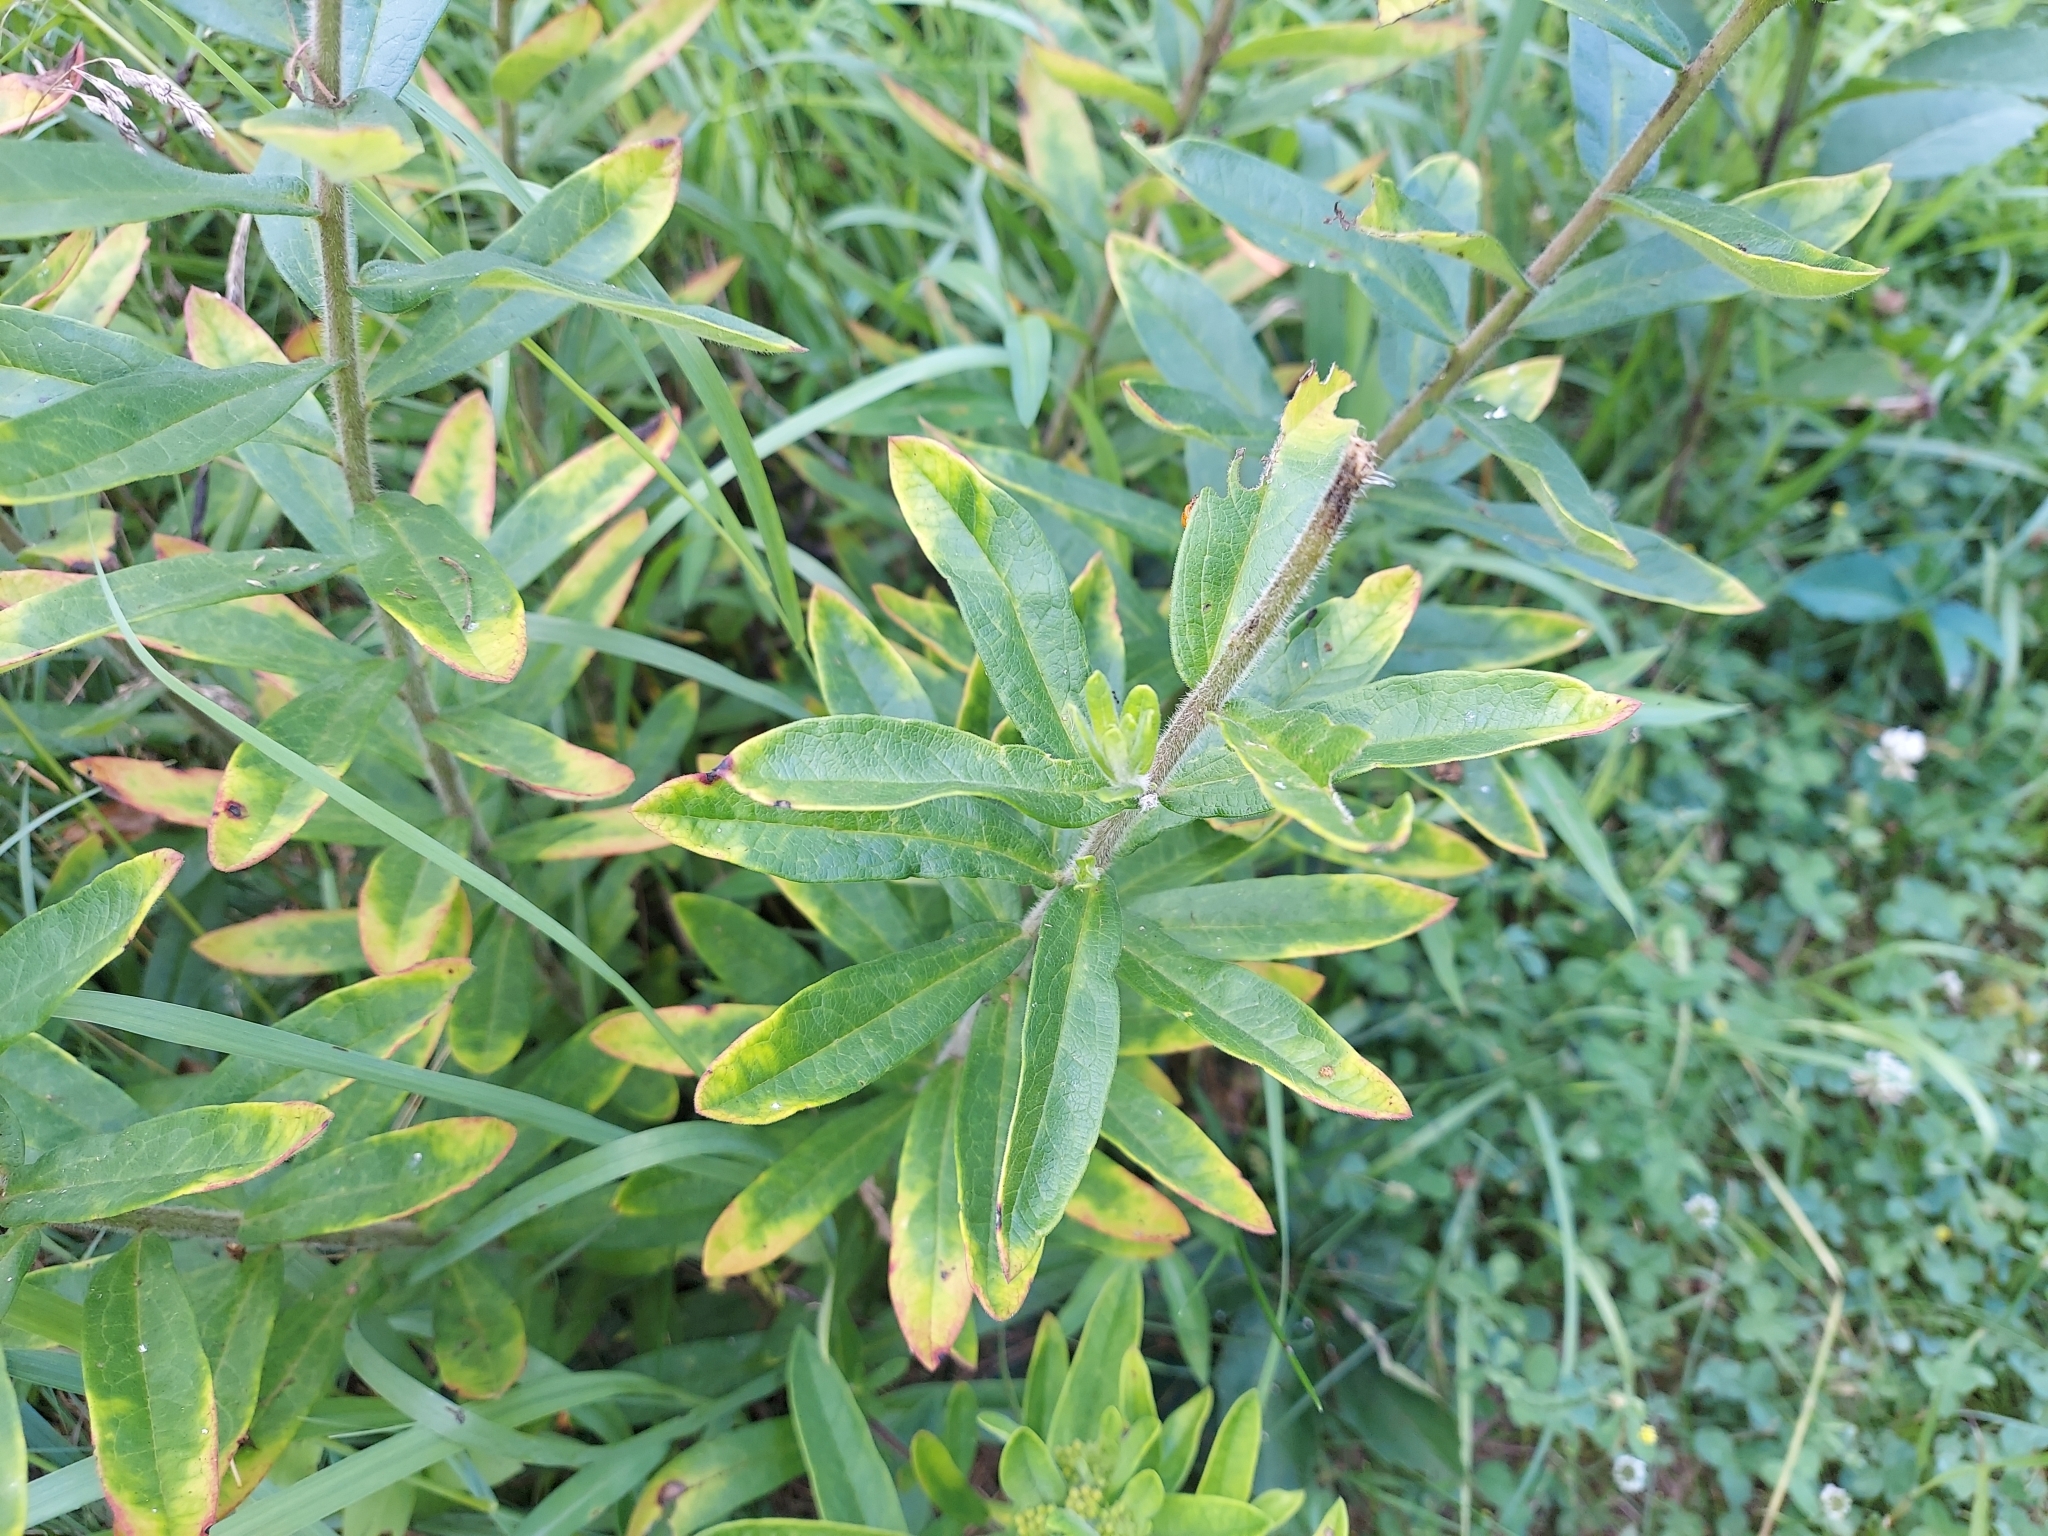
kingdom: Plantae
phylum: Tracheophyta
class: Magnoliopsida
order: Gentianales
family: Apocynaceae
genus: Asclepias
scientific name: Asclepias tuberosa
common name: Butterfly milkweed
